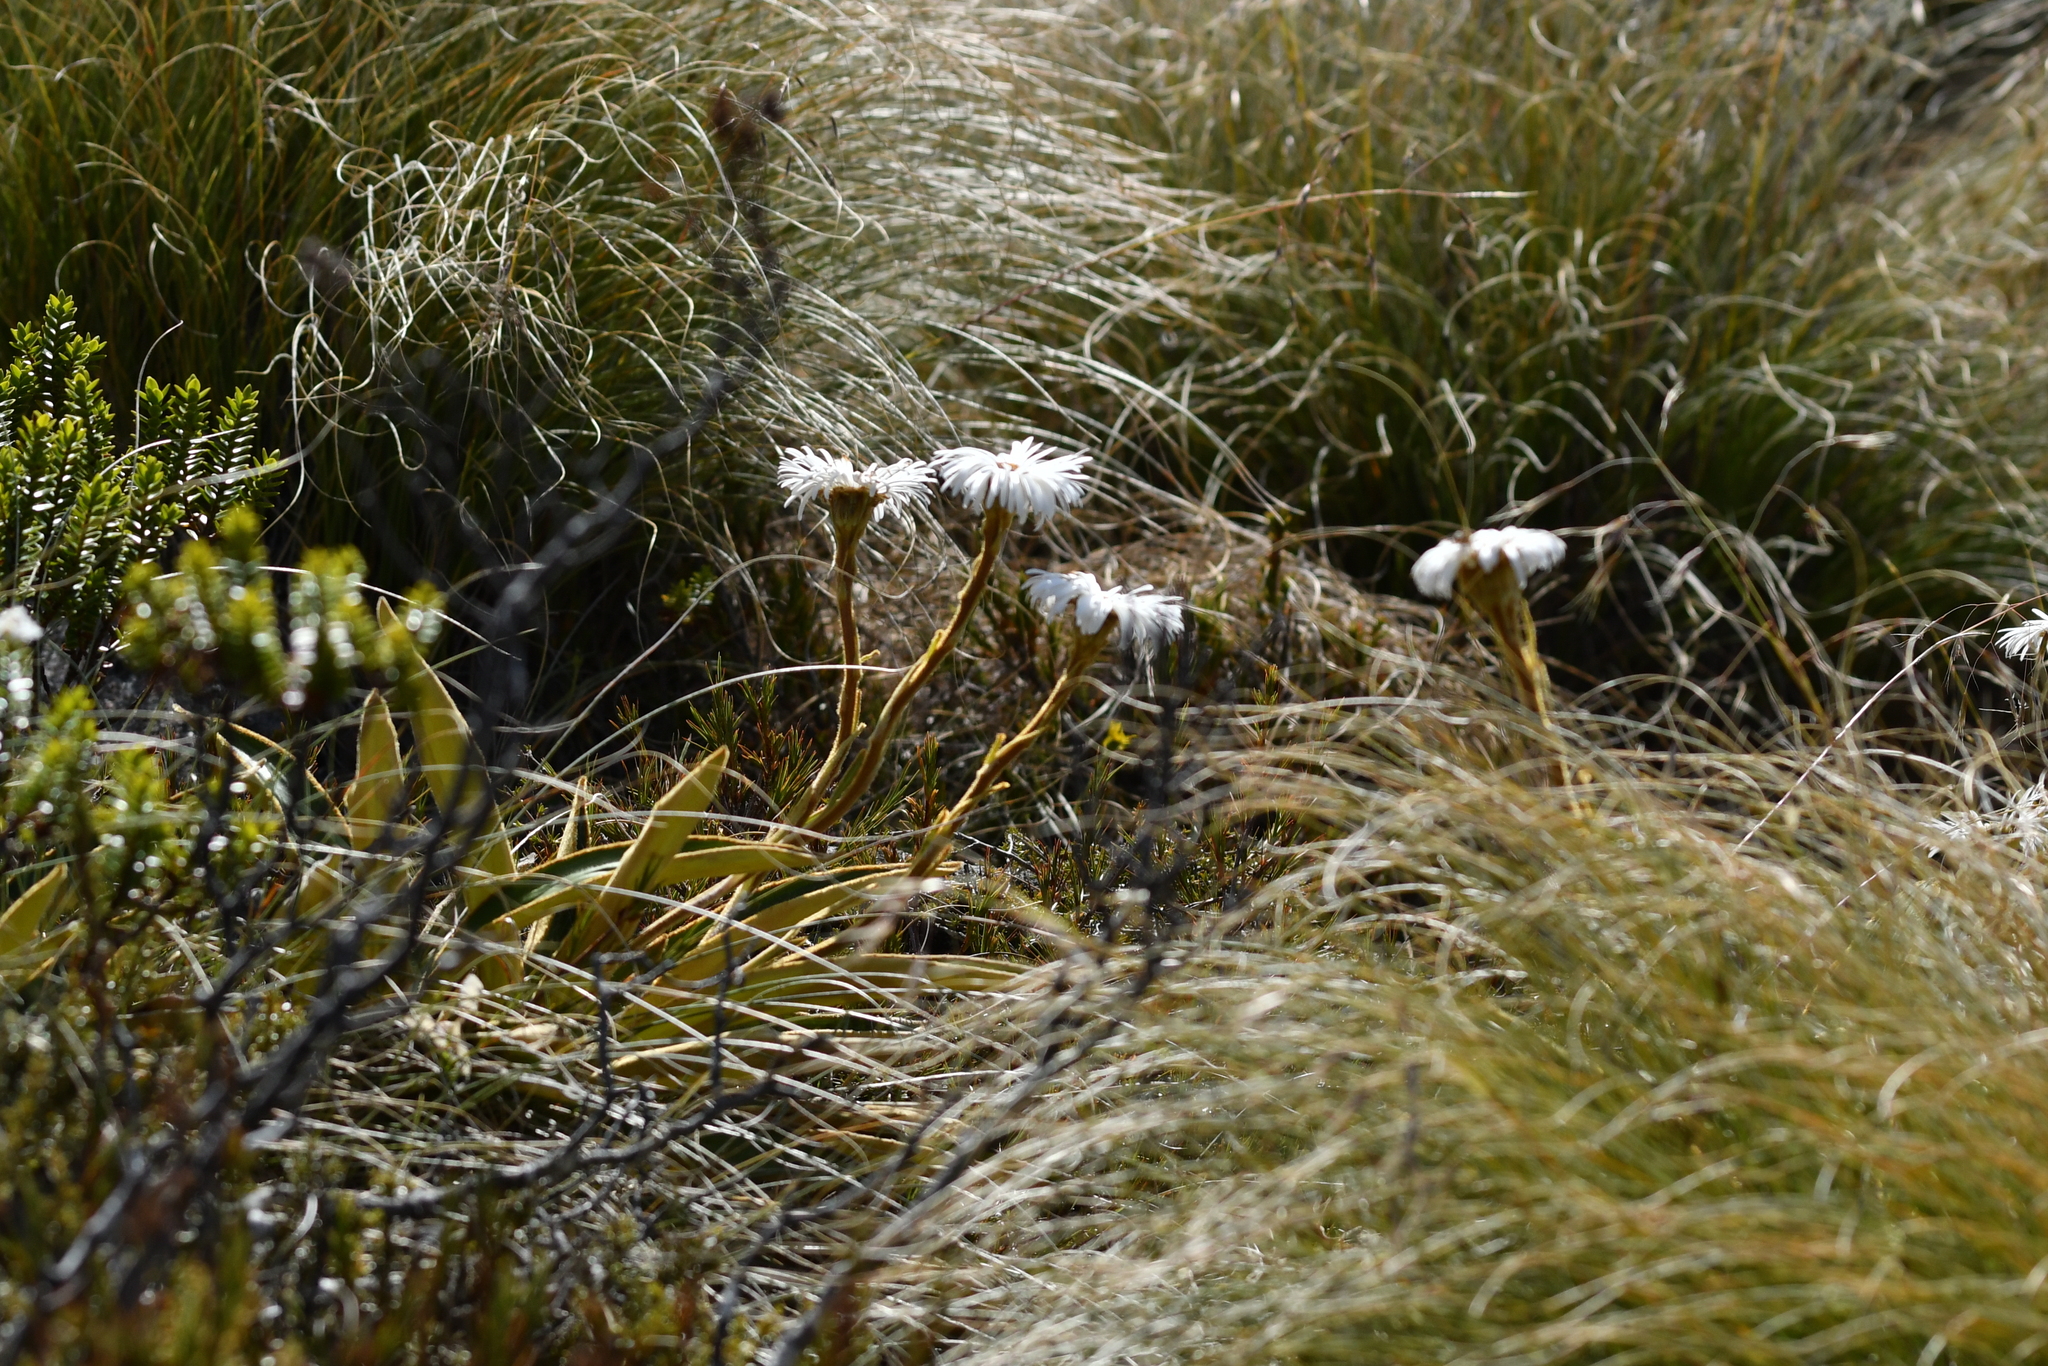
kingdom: Plantae
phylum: Tracheophyta
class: Magnoliopsida
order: Asterales
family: Asteraceae
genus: Celmisia
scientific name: Celmisia traversii
